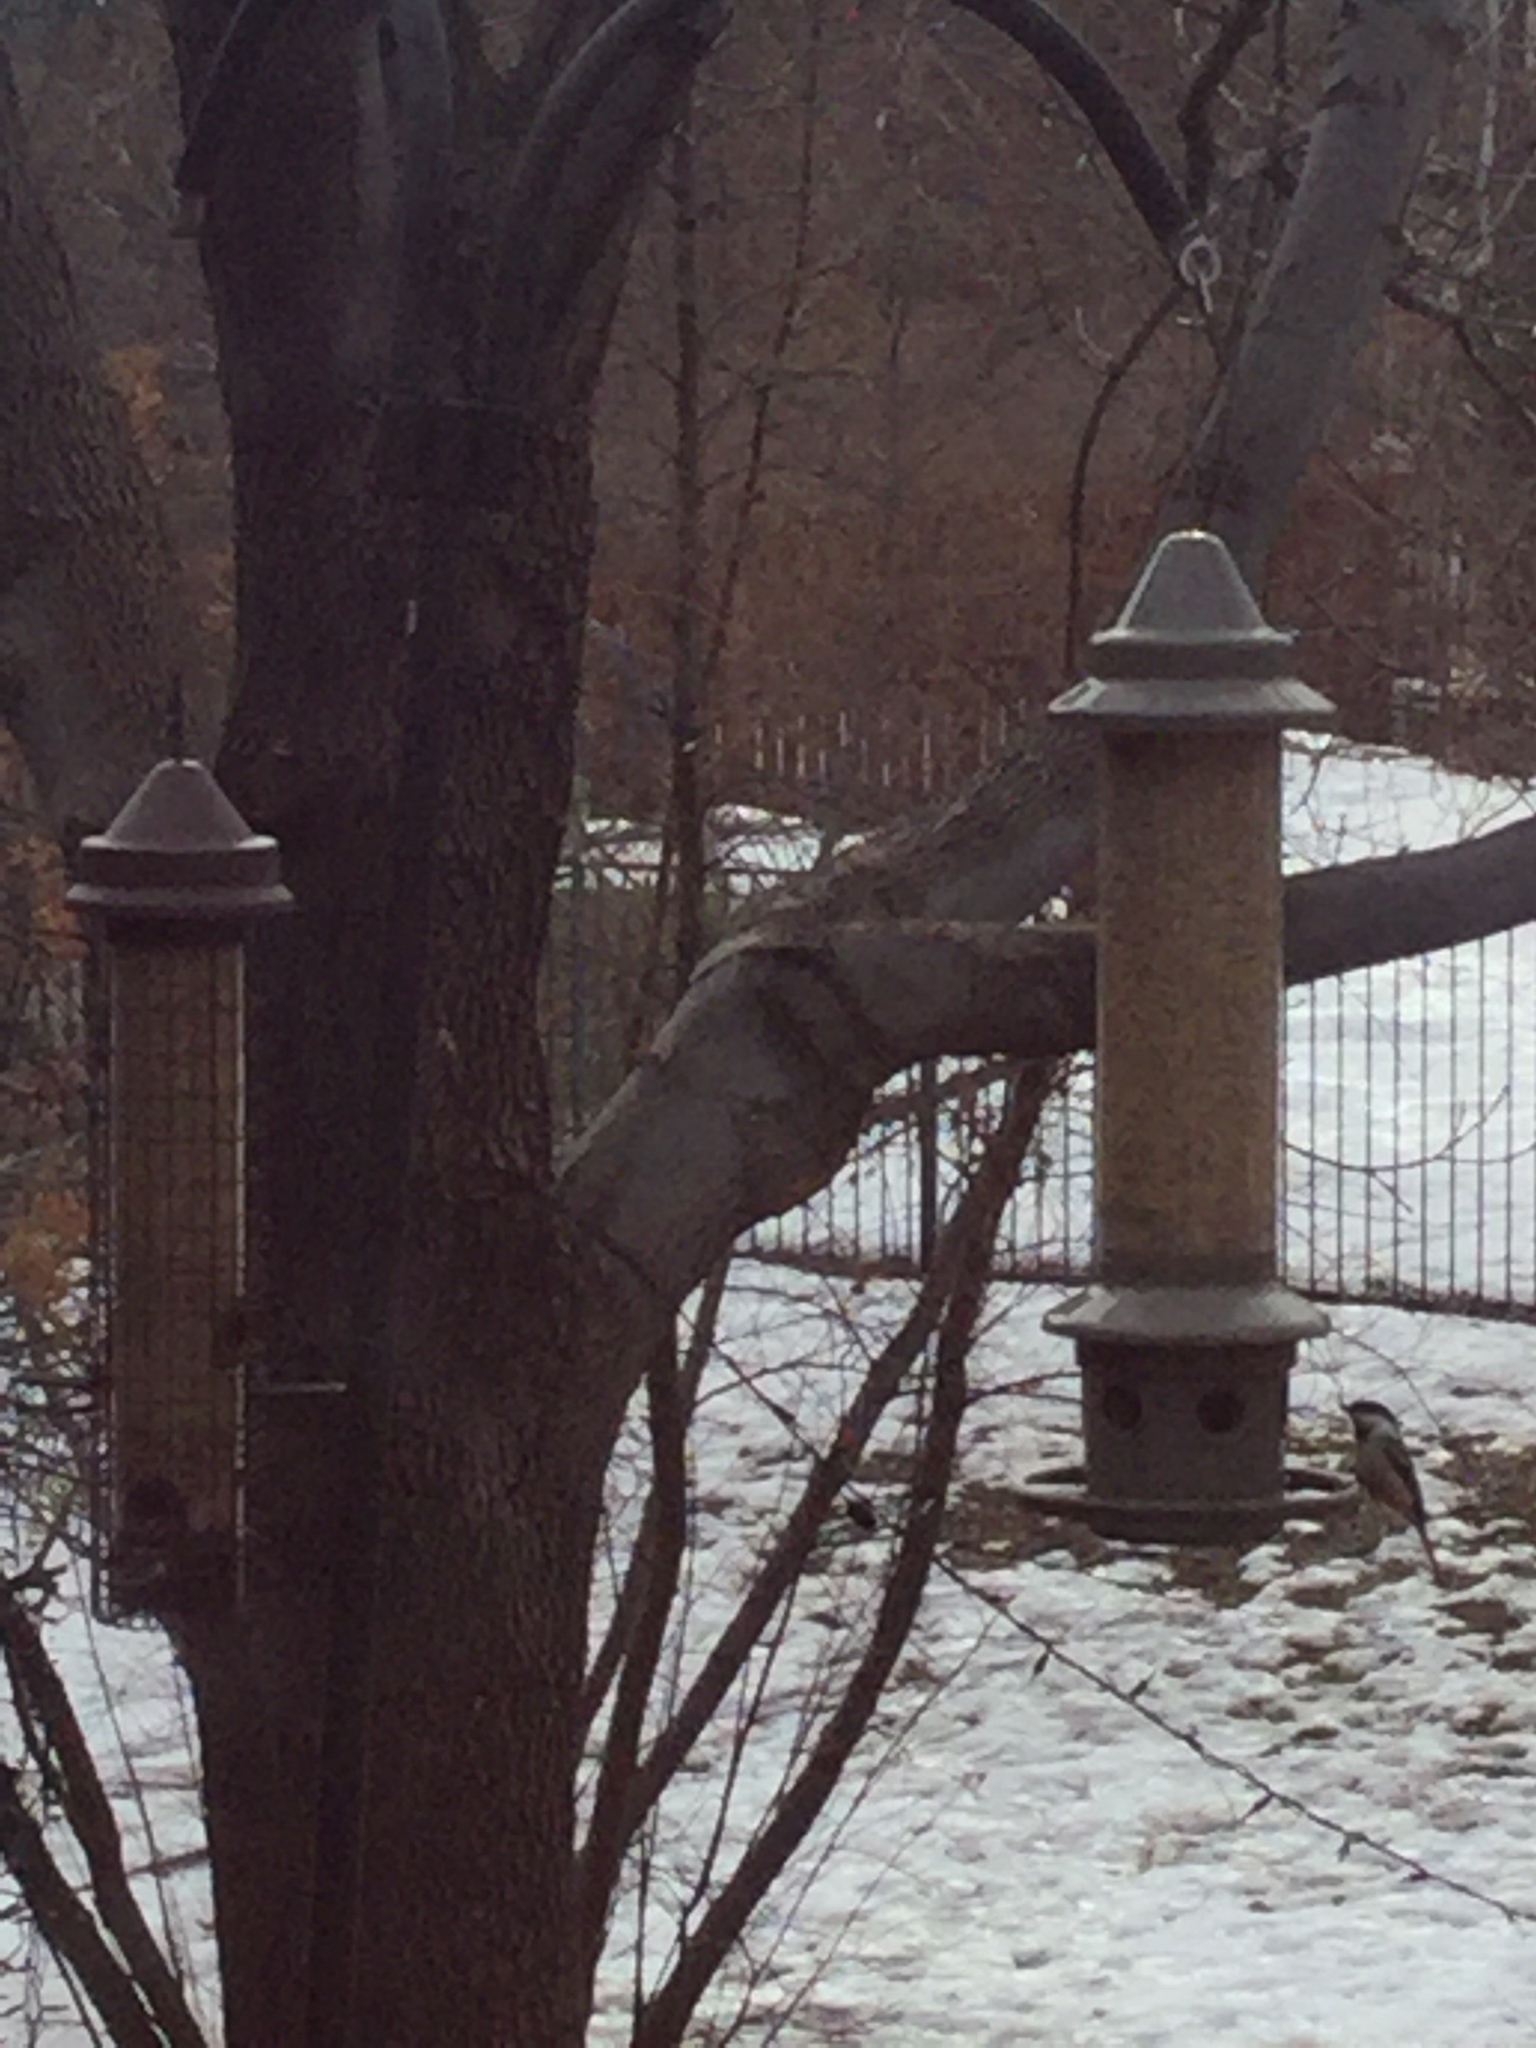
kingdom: Animalia
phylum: Chordata
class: Aves
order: Passeriformes
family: Paridae
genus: Poecile
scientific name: Poecile atricapillus
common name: Black-capped chickadee
